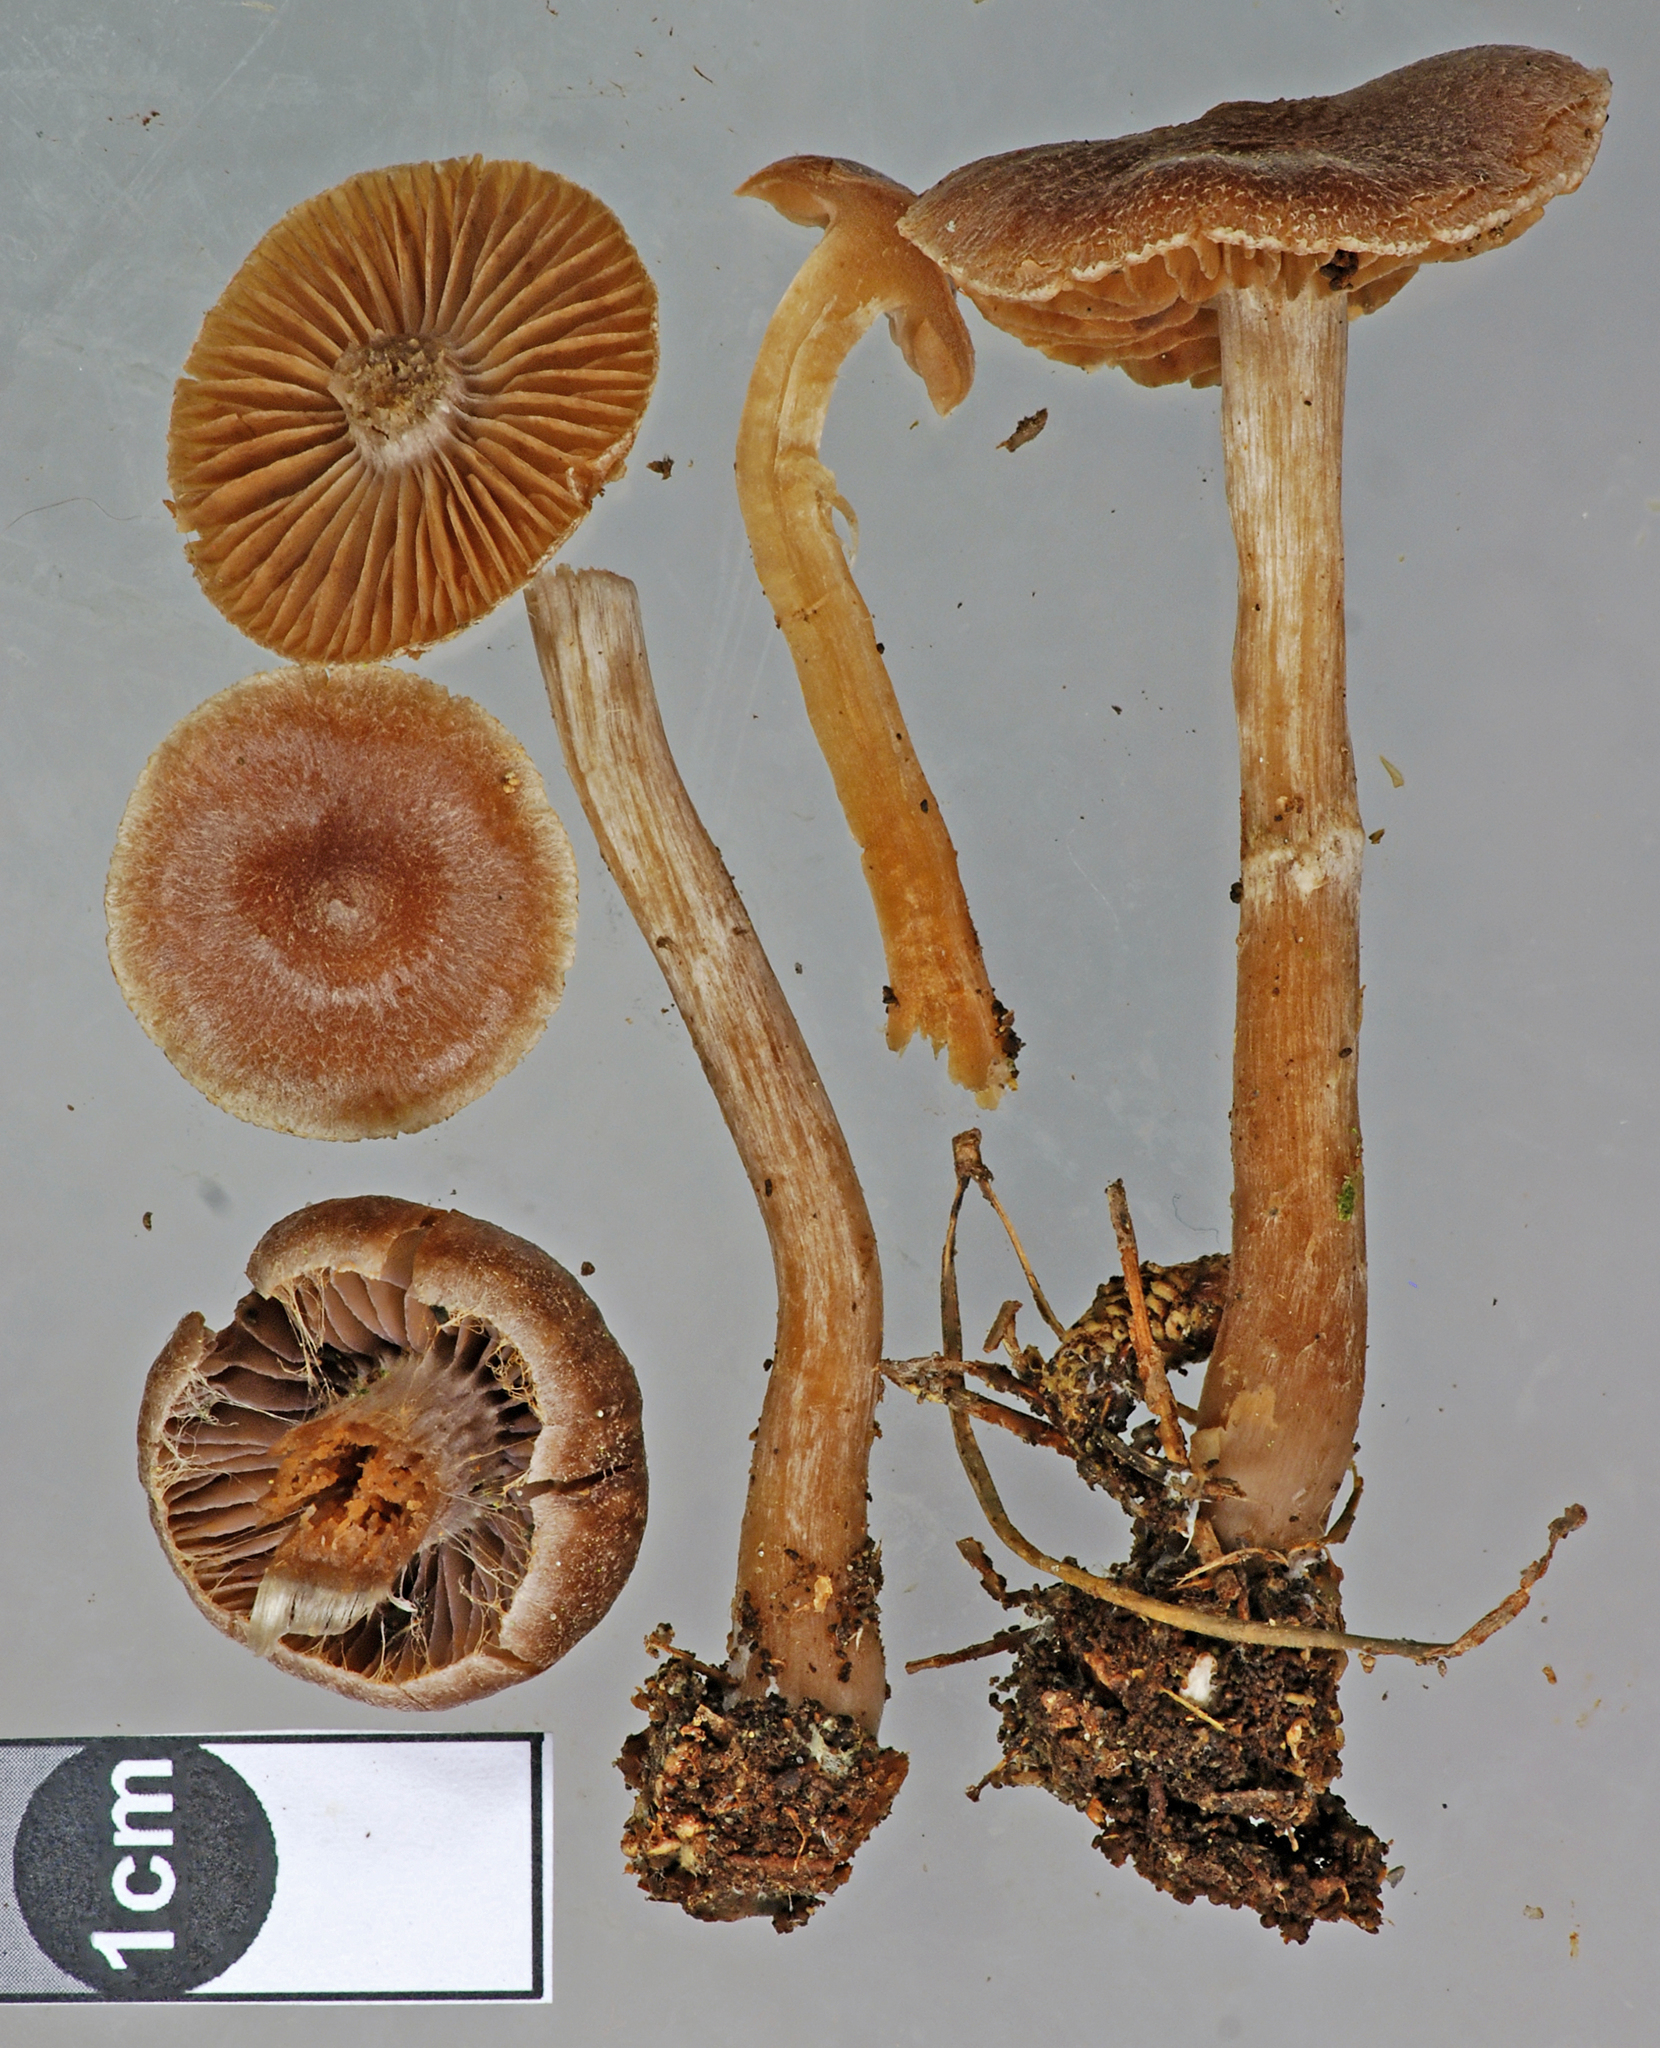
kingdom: Fungi
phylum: Basidiomycota
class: Agaricomycetes
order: Agaricales
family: Cortinariaceae
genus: Cortinarius
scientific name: Cortinarius hemitrichus
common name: Frosty webcap
